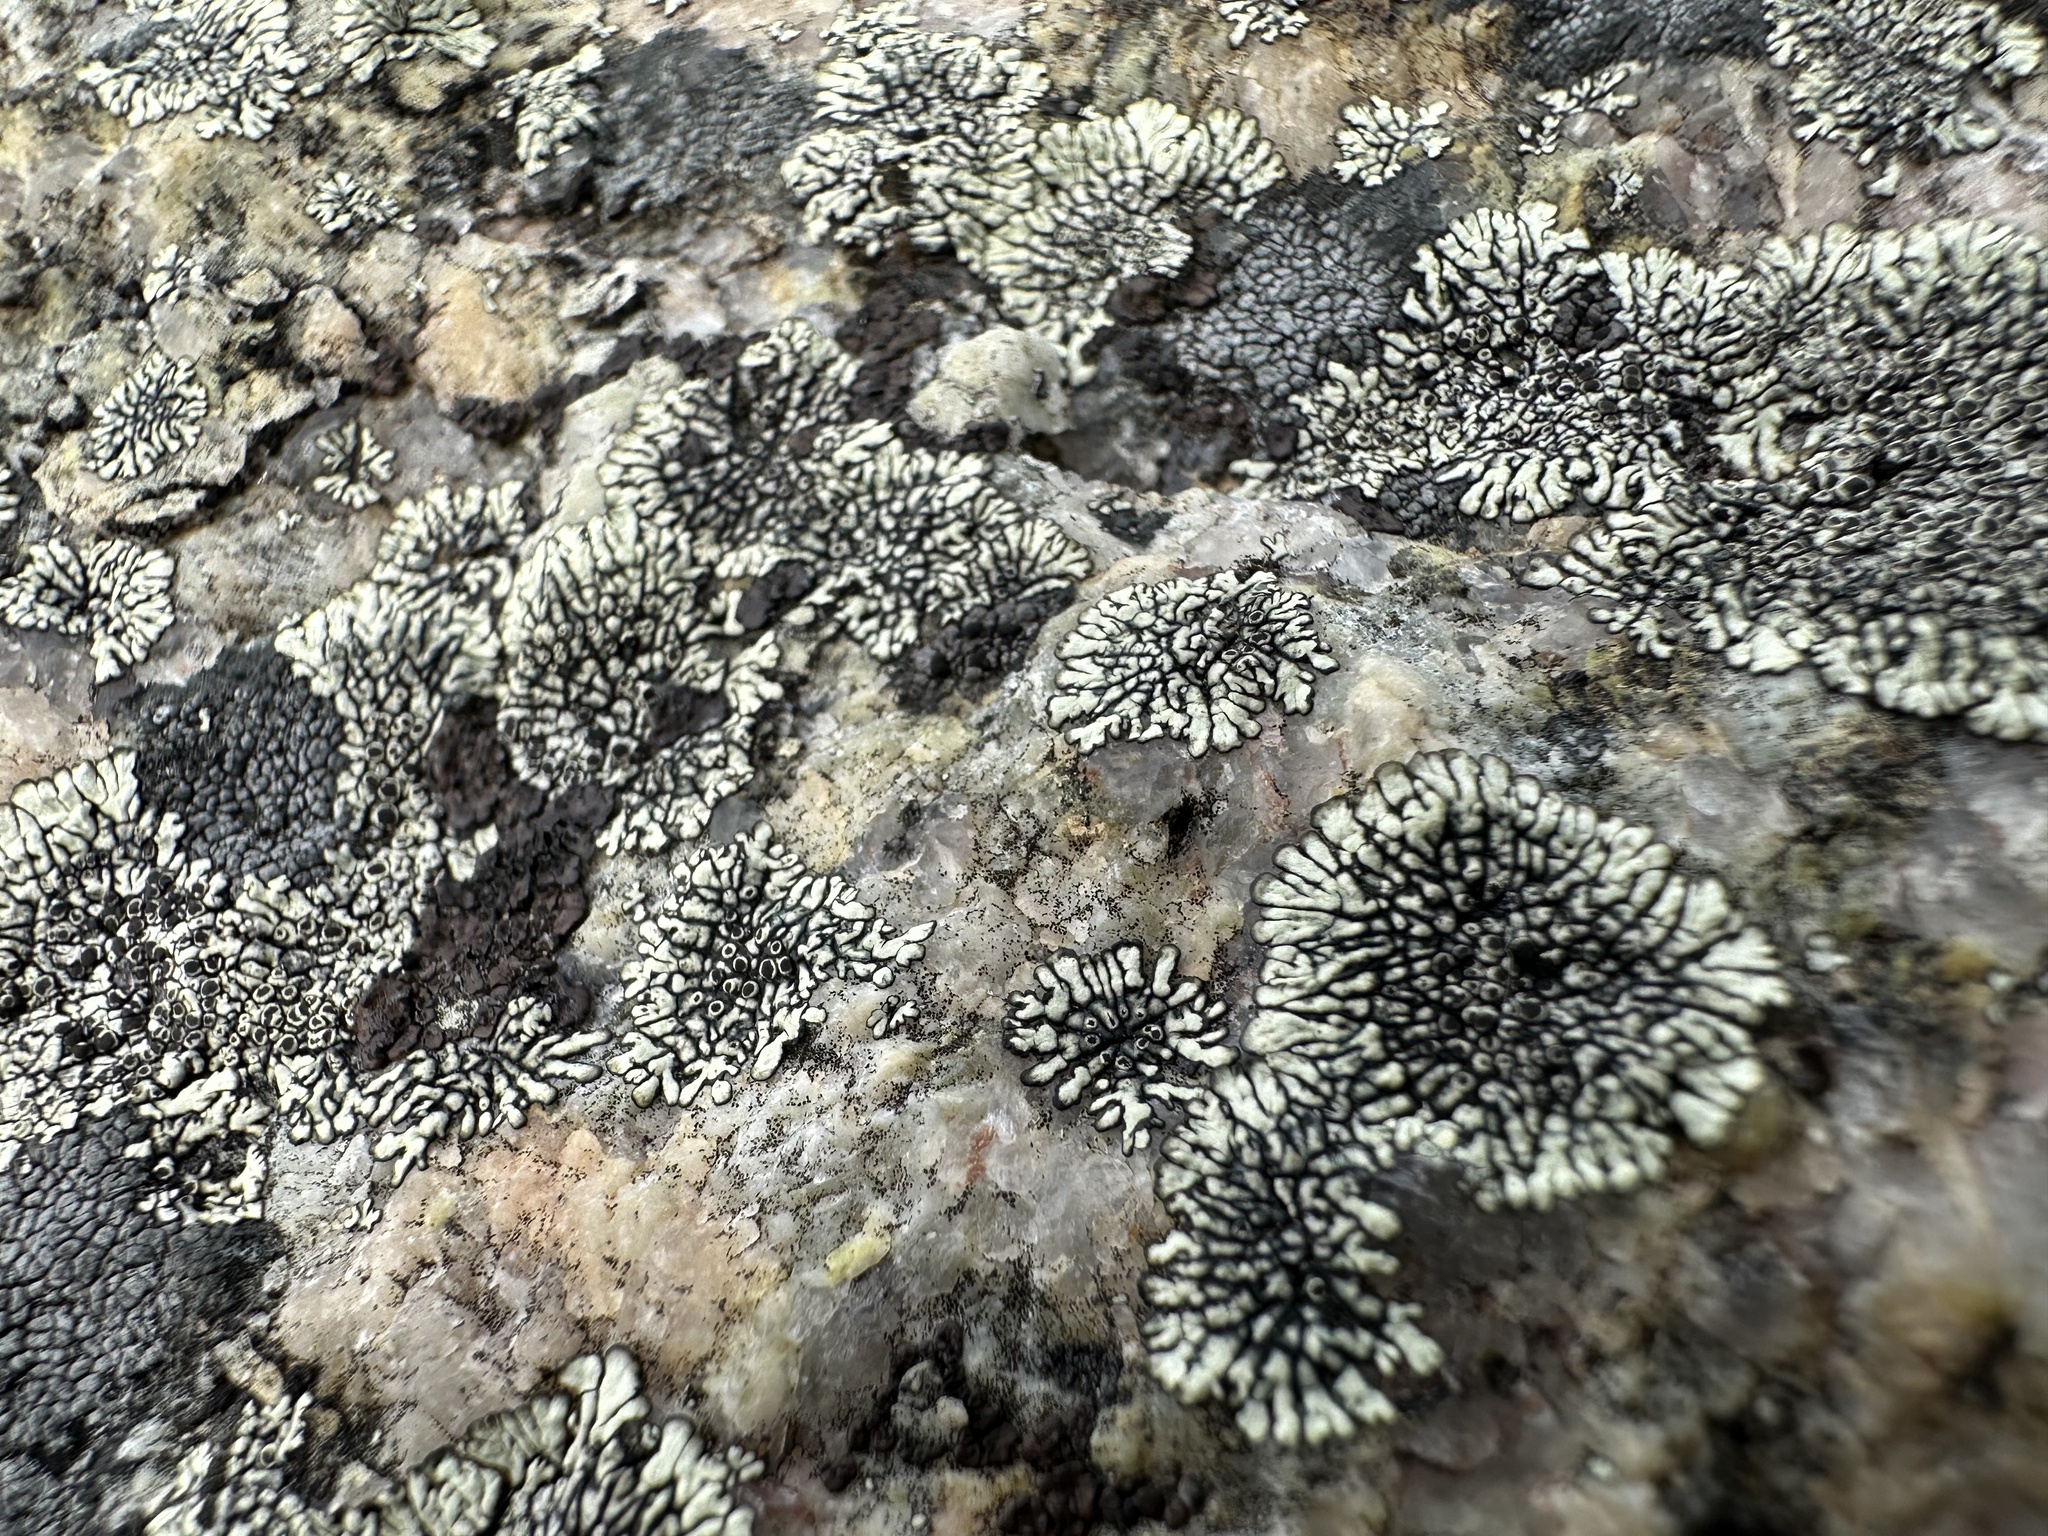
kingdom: Fungi
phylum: Ascomycota
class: Lecanoromycetes
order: Caliciales
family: Caliciaceae
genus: Dimelaena
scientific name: Dimelaena oreina
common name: Golden moonglow lichen
